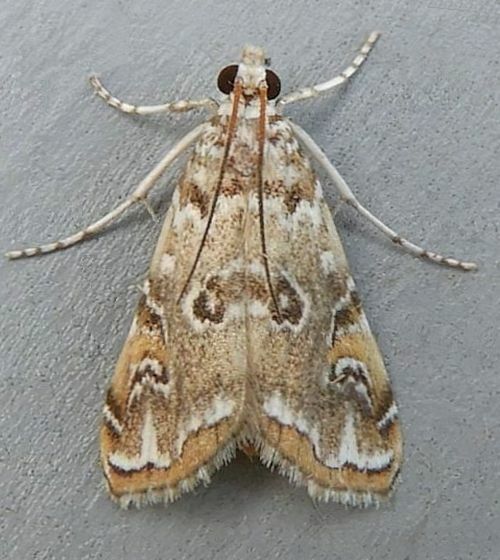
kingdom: Animalia
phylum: Arthropoda
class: Insecta
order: Lepidoptera
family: Crambidae
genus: Elophila
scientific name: Elophila gyralis
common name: Waterlily borer moth
